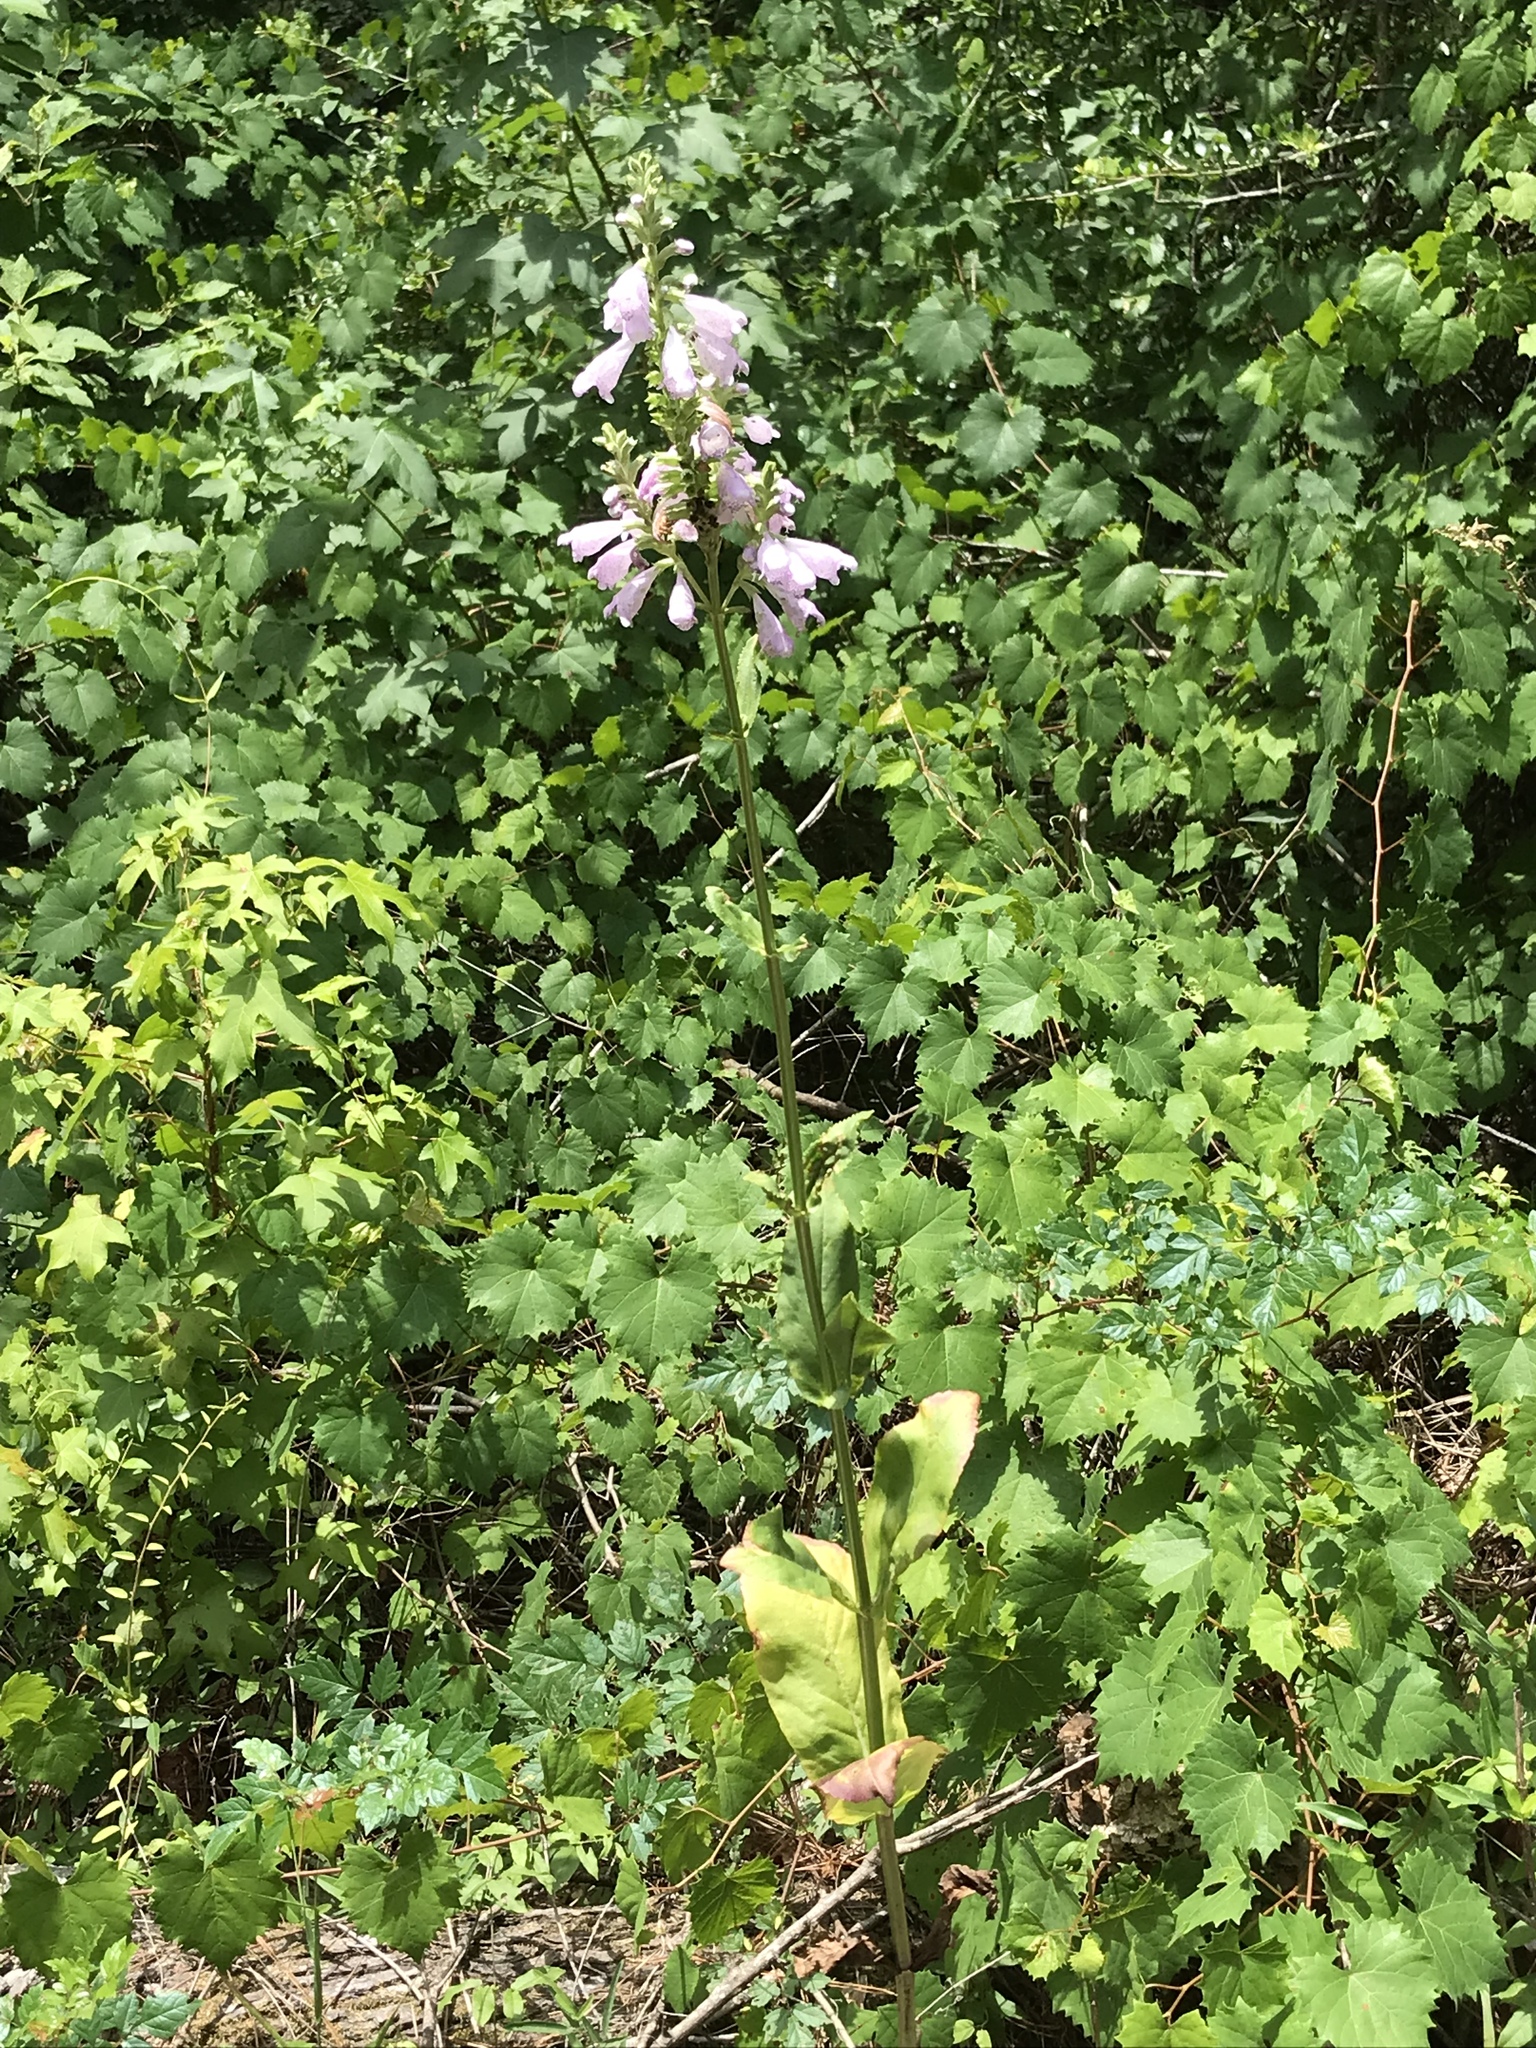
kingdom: Plantae
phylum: Tracheophyta
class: Magnoliopsida
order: Lamiales
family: Lamiaceae
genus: Physostegia
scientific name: Physostegia digitalis
